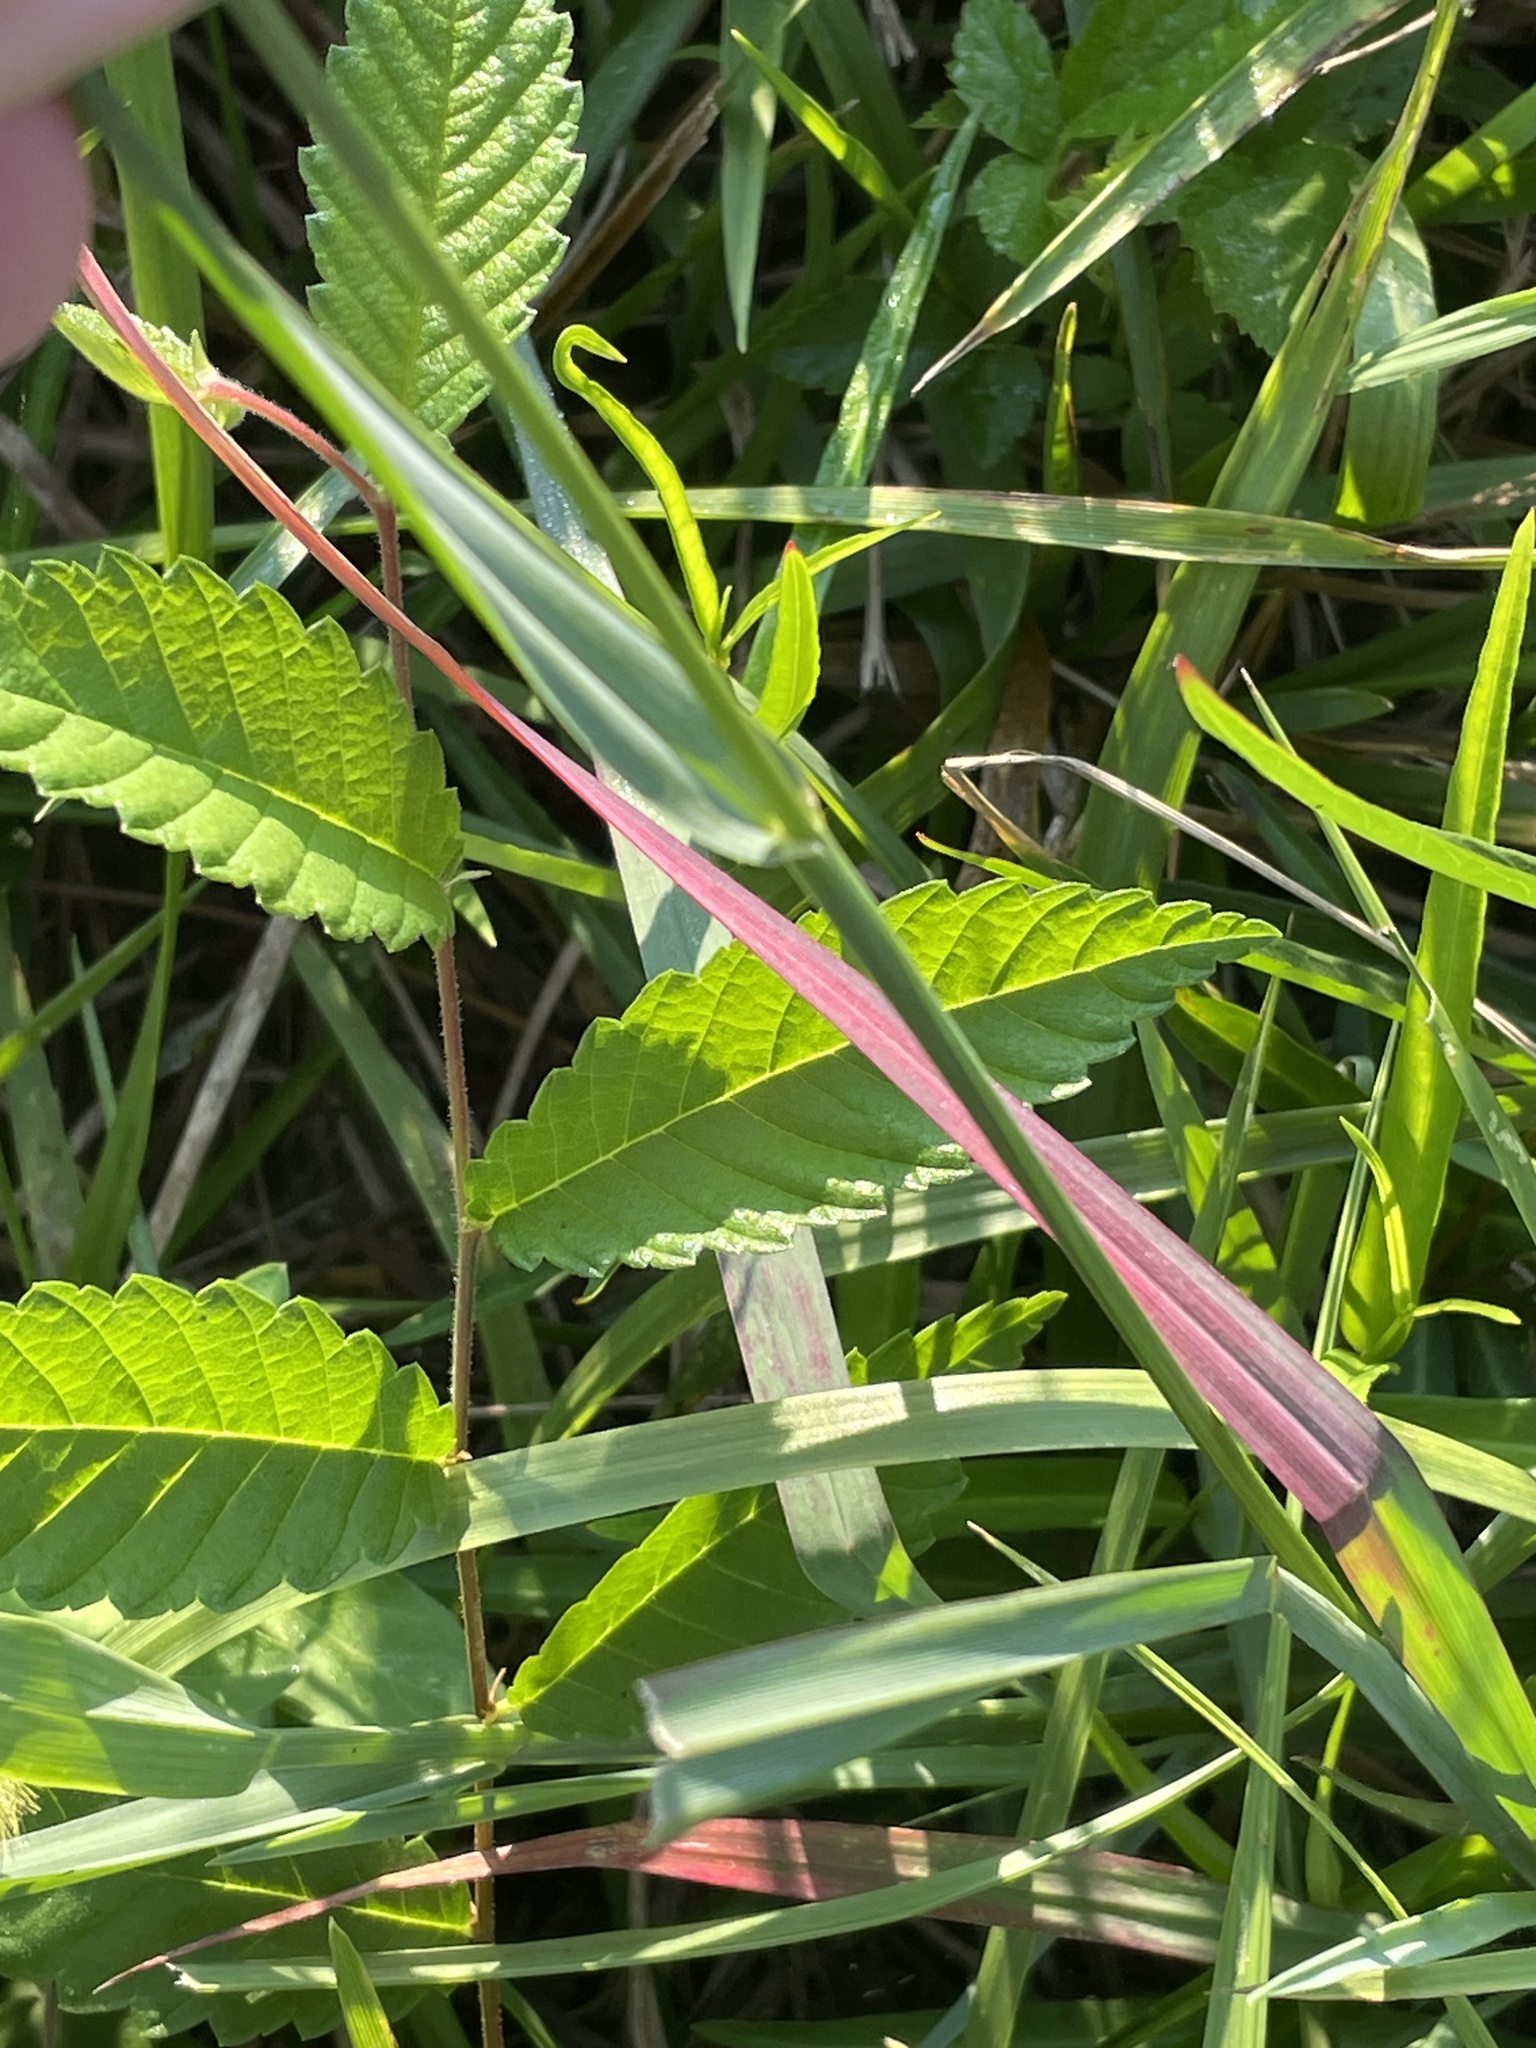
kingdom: Plantae
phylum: Tracheophyta
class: Liliopsida
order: Poales
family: Poaceae
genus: Setaria
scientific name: Setaria parviflora
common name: Knotroot bristle-grass
